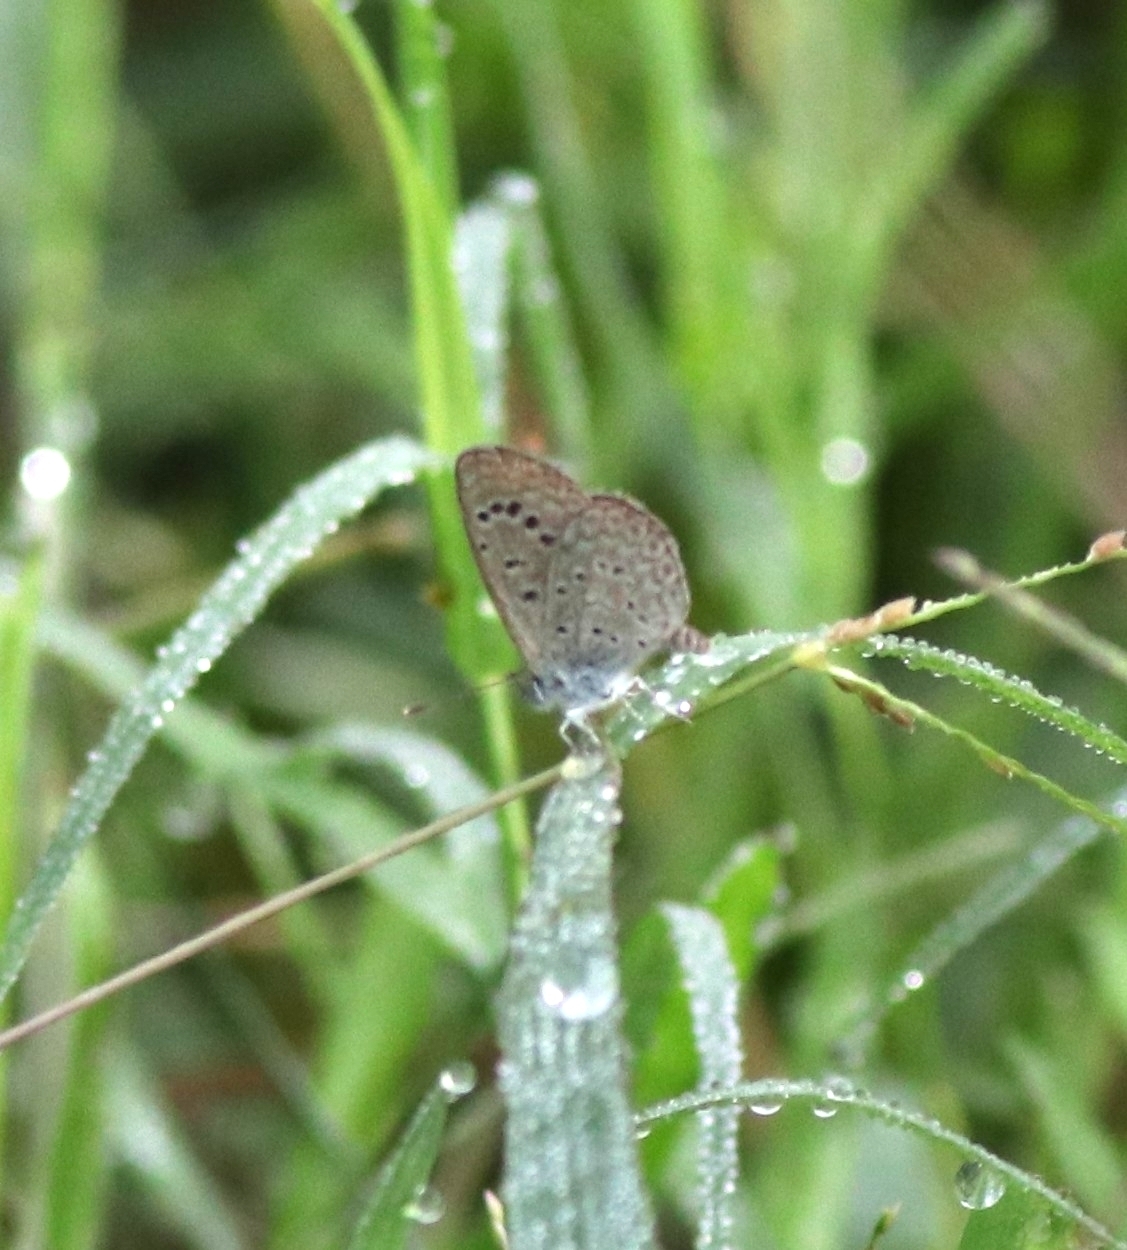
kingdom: Animalia
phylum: Arthropoda
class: Insecta
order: Lepidoptera
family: Lycaenidae
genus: Zizeeria
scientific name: Zizeeria karsandra
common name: Dark grass blue
